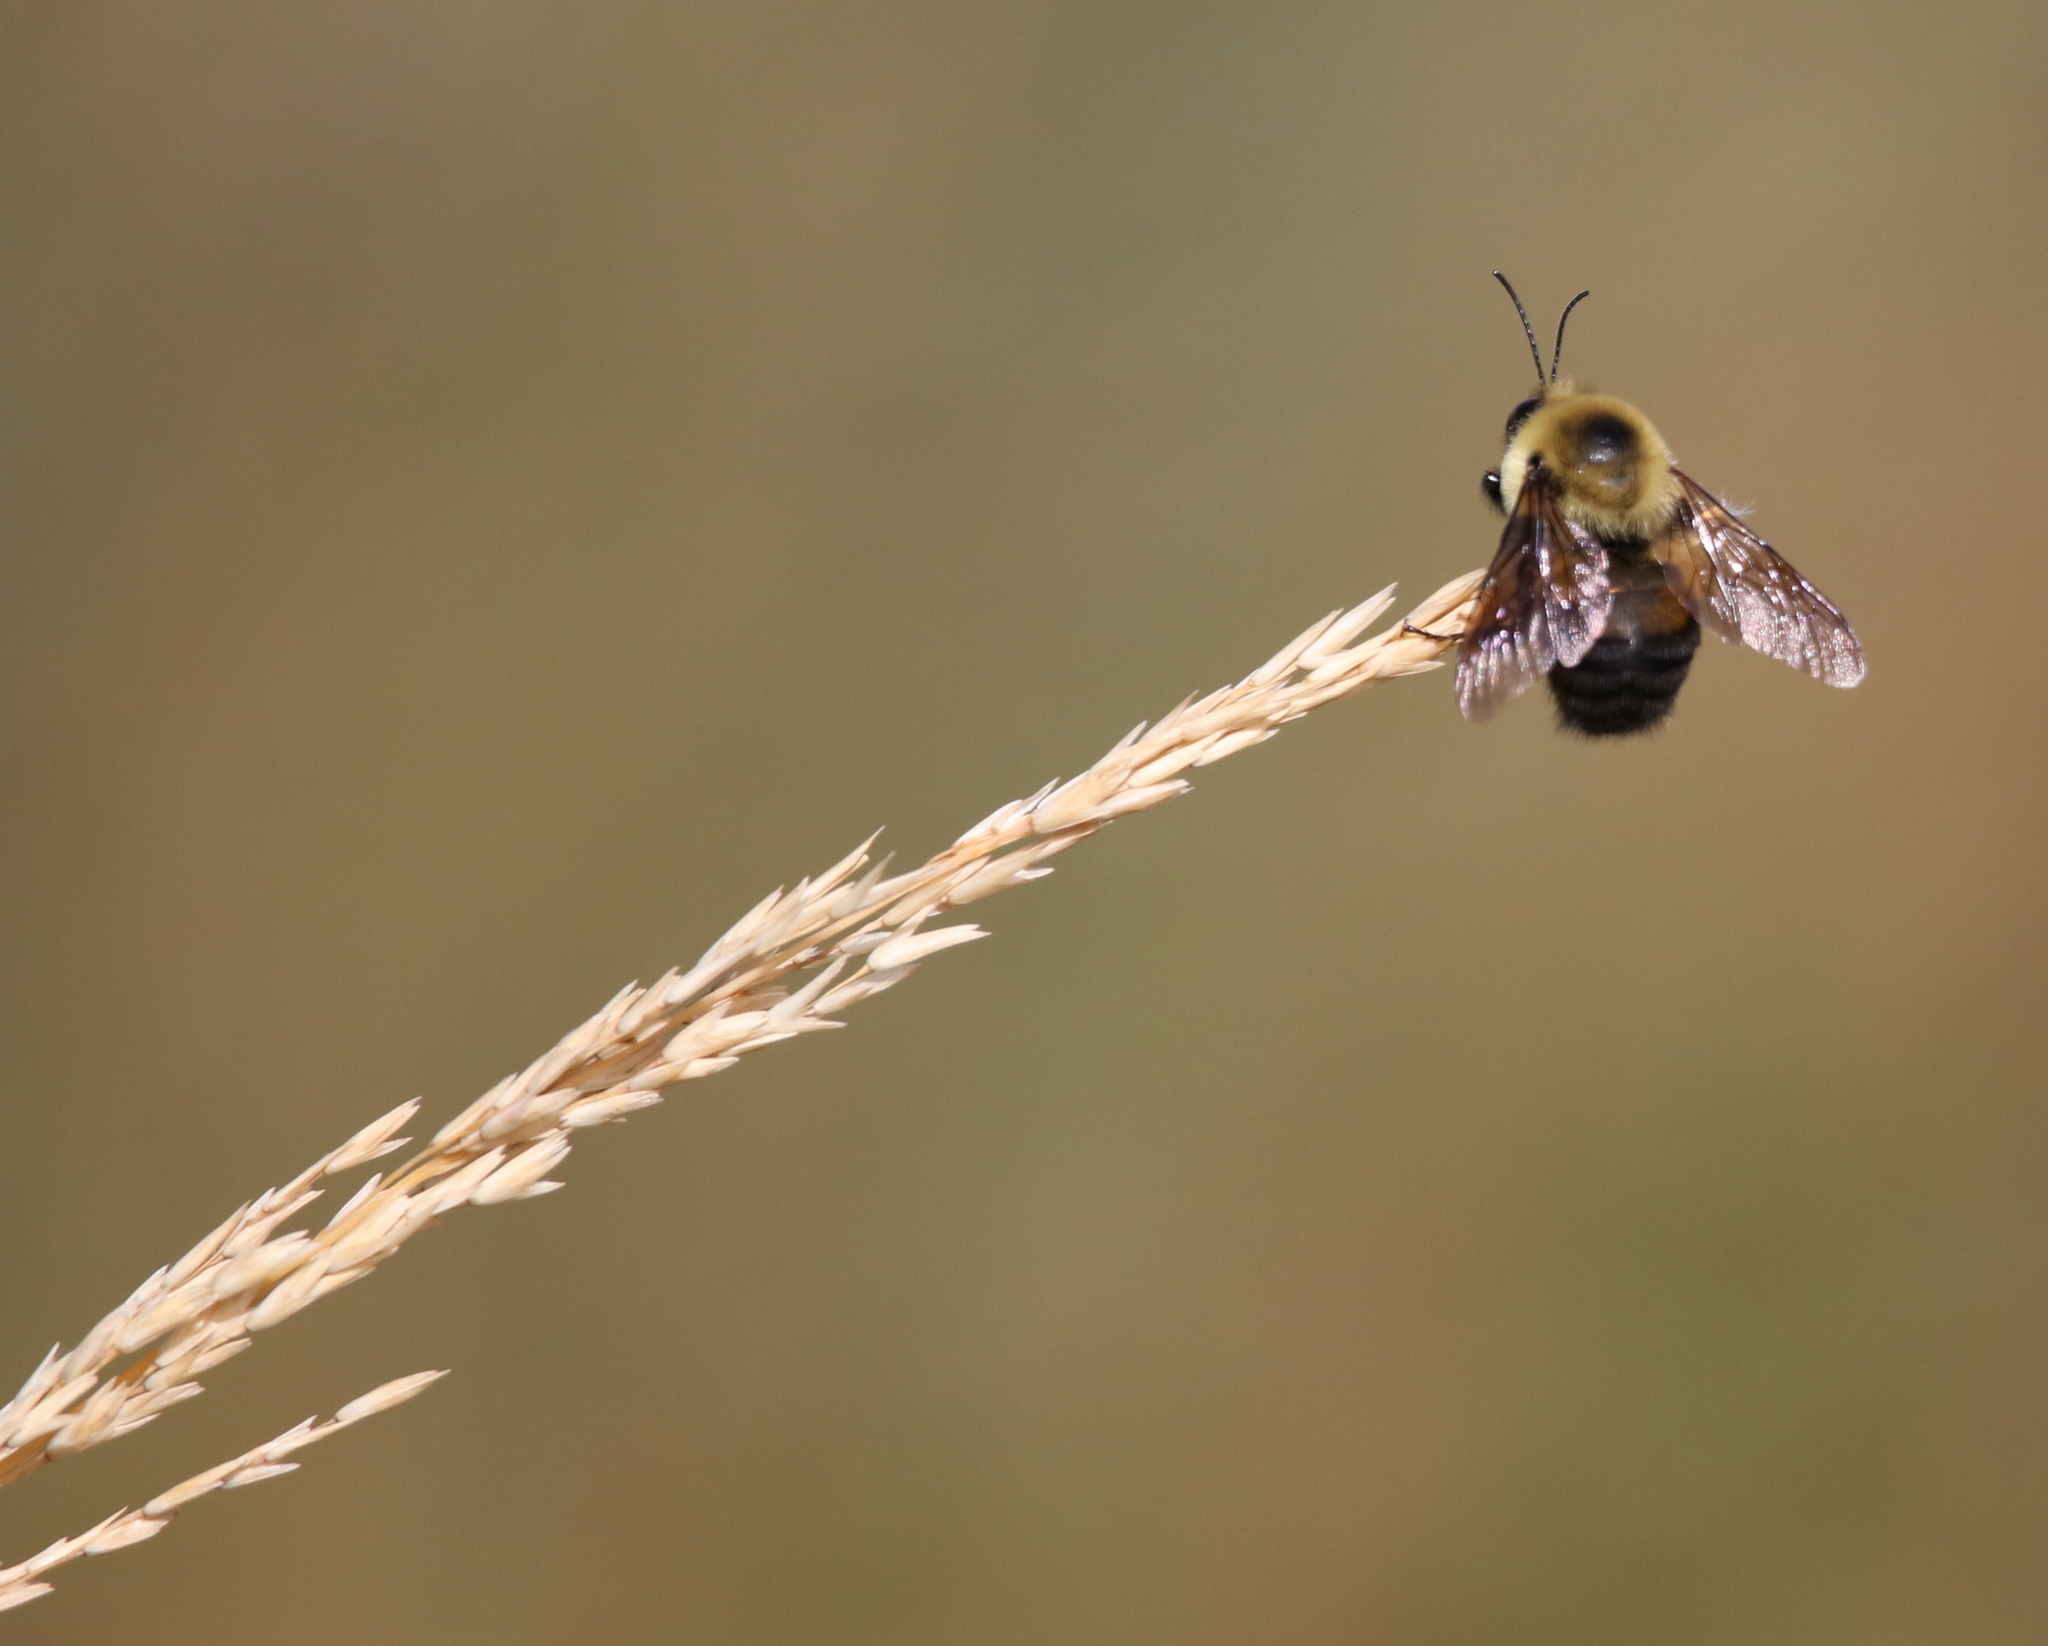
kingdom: Animalia
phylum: Arthropoda
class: Insecta
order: Hymenoptera
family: Apidae
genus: Bombus
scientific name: Bombus griseocollis
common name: Brown-belted bumble bee
